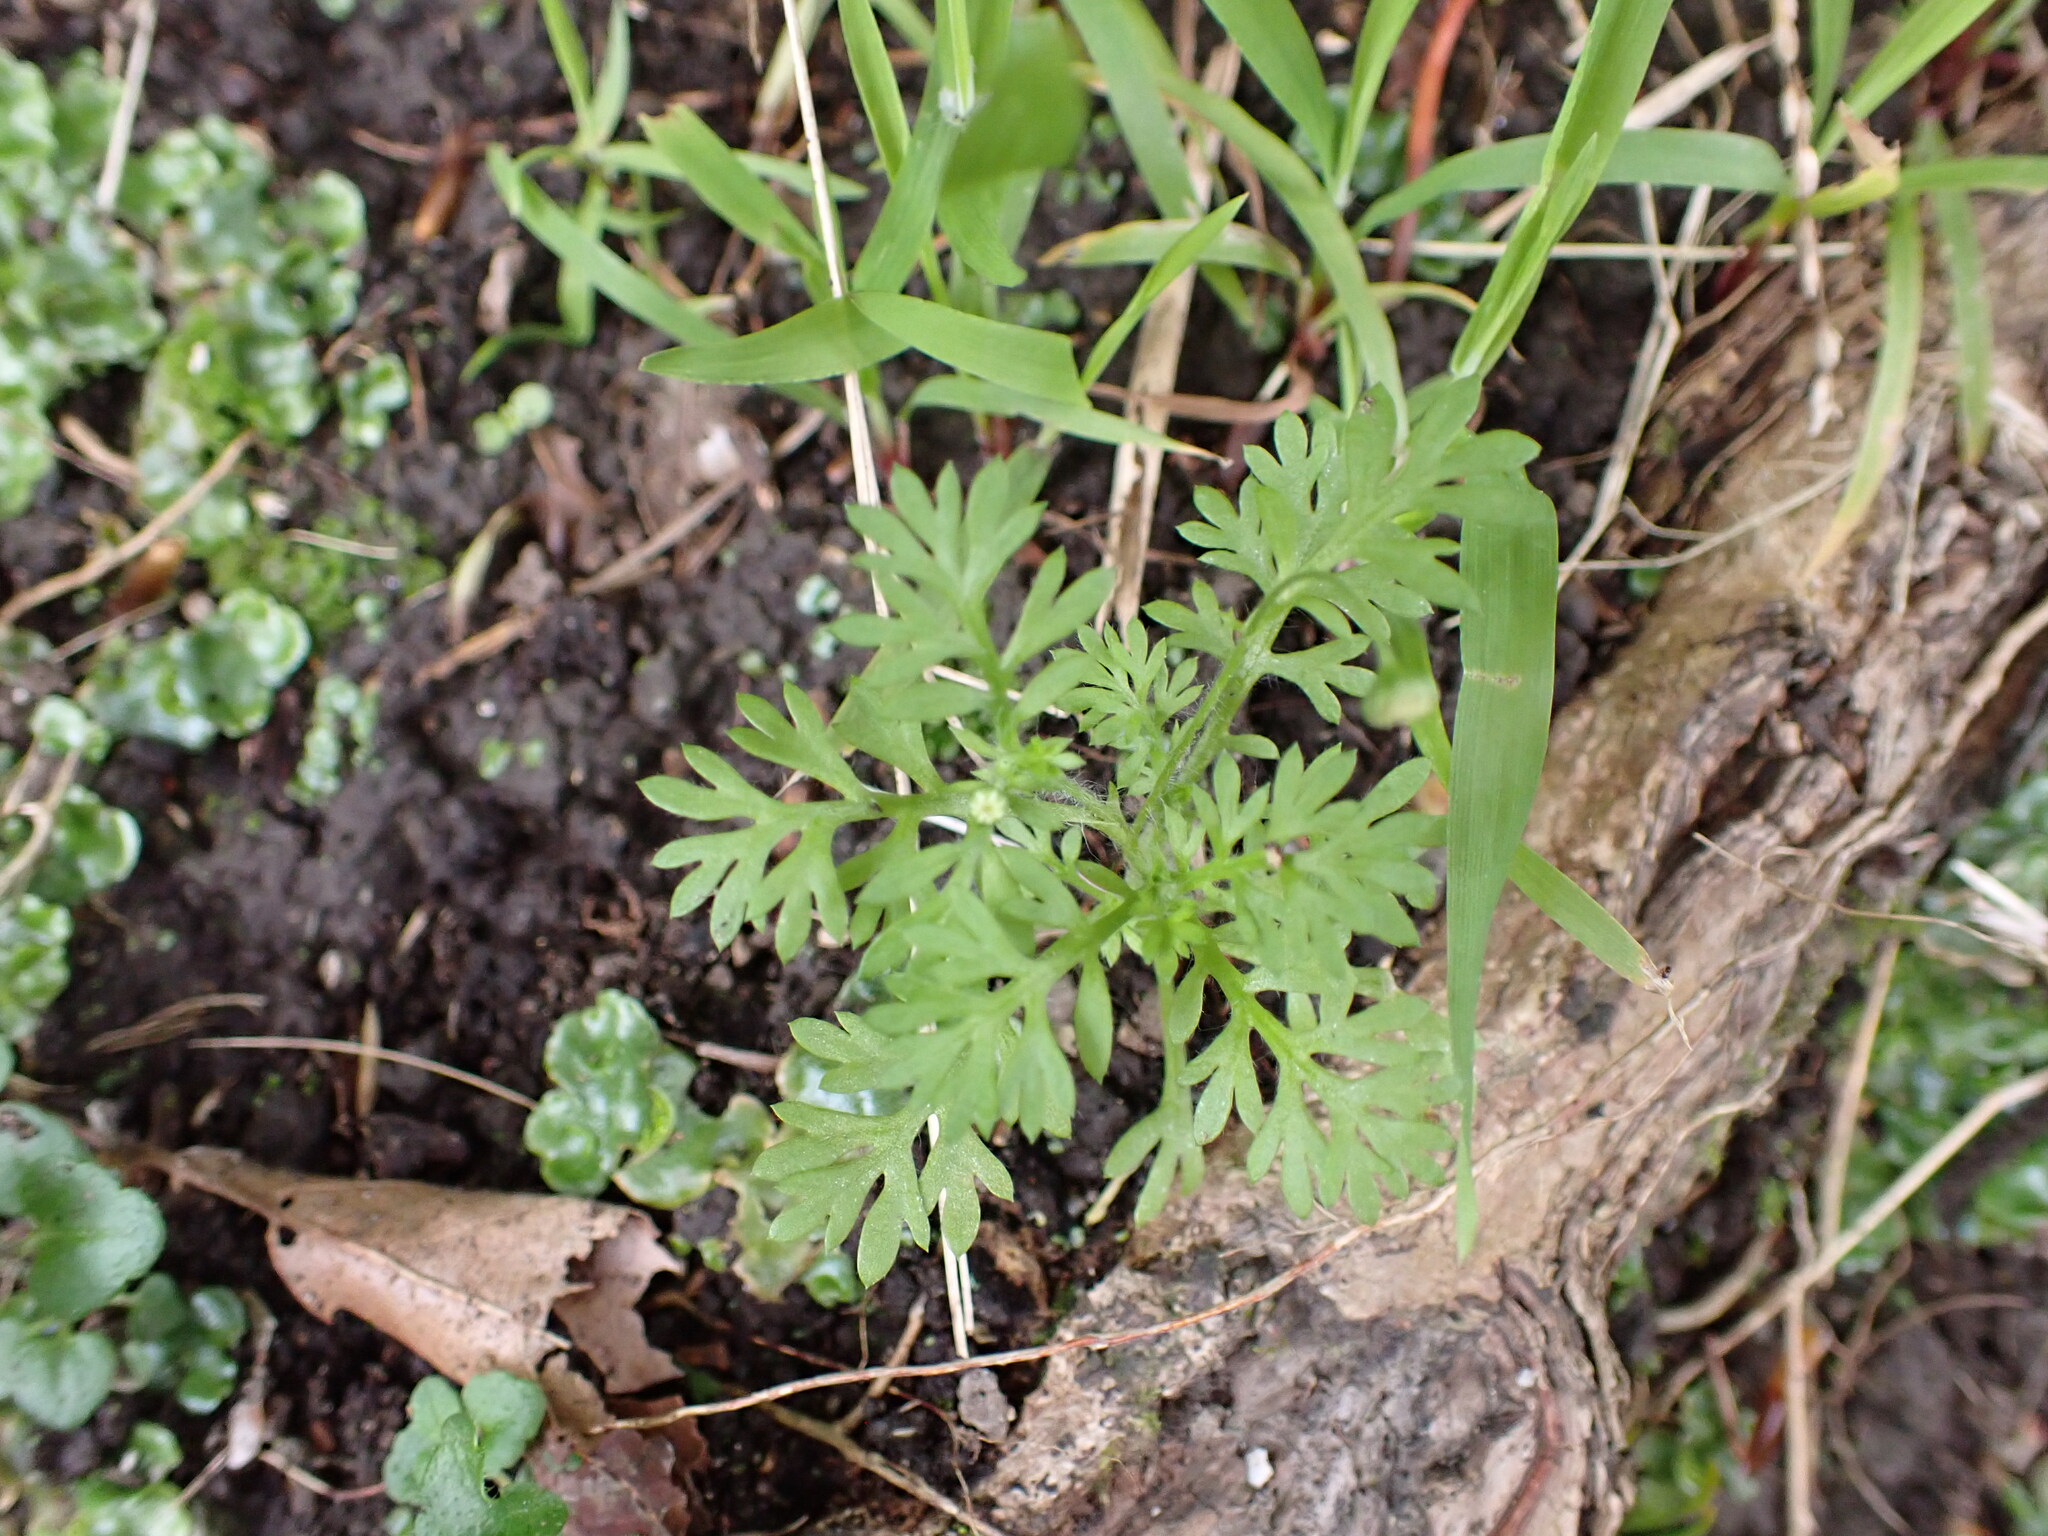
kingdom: Plantae
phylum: Tracheophyta
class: Magnoliopsida
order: Asterales
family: Asteraceae
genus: Cotula
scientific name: Cotula australis
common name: Australian waterbuttons
